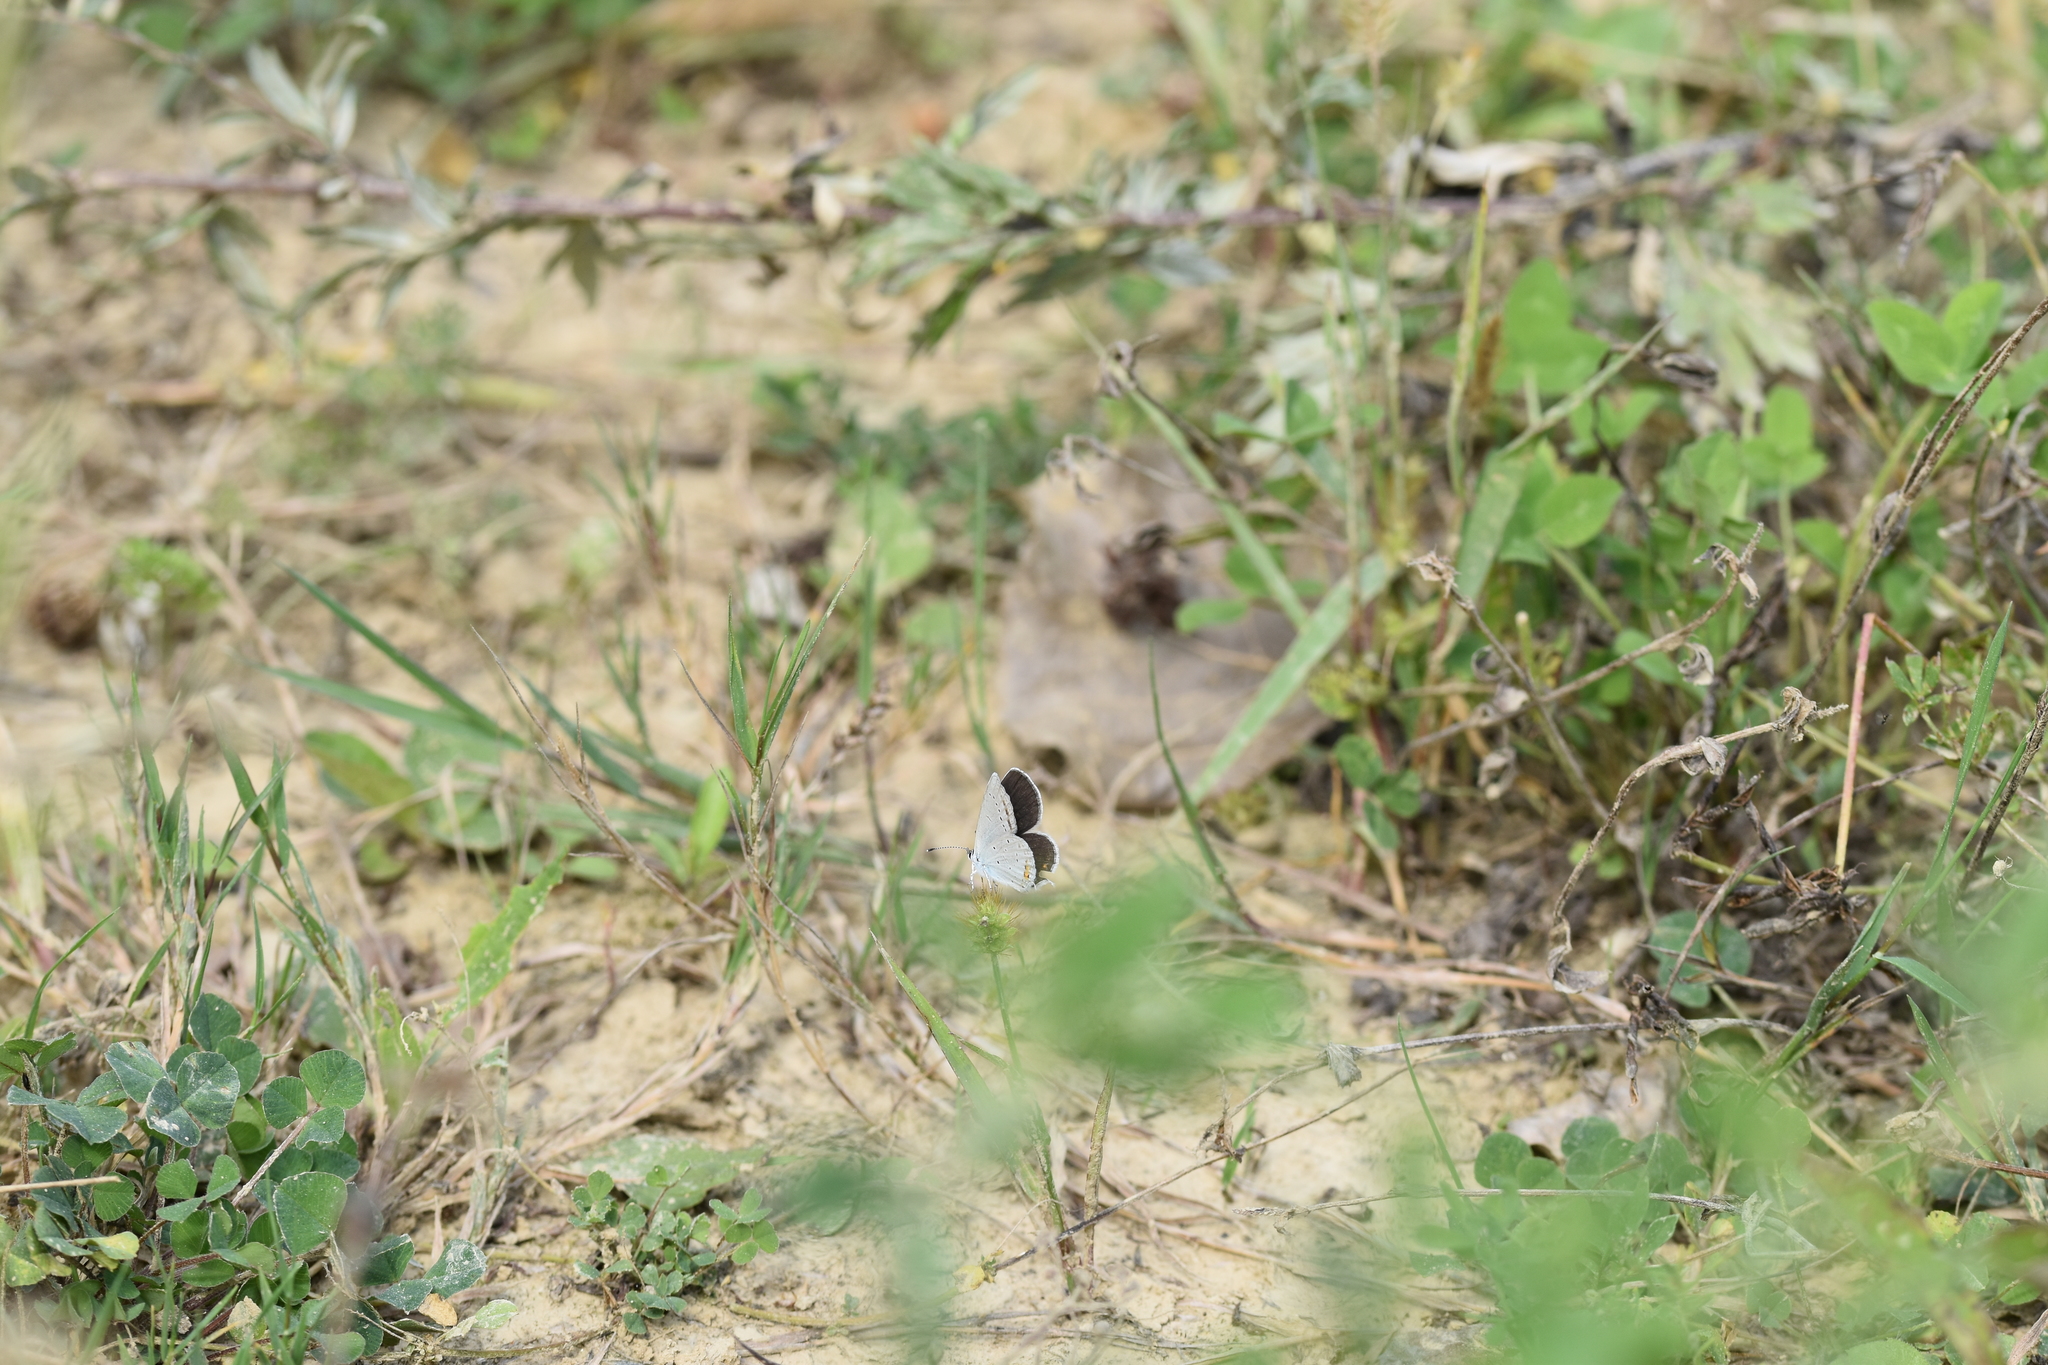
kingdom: Animalia
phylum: Arthropoda
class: Insecta
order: Lepidoptera
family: Lycaenidae
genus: Elkalyce
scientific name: Elkalyce argiades
